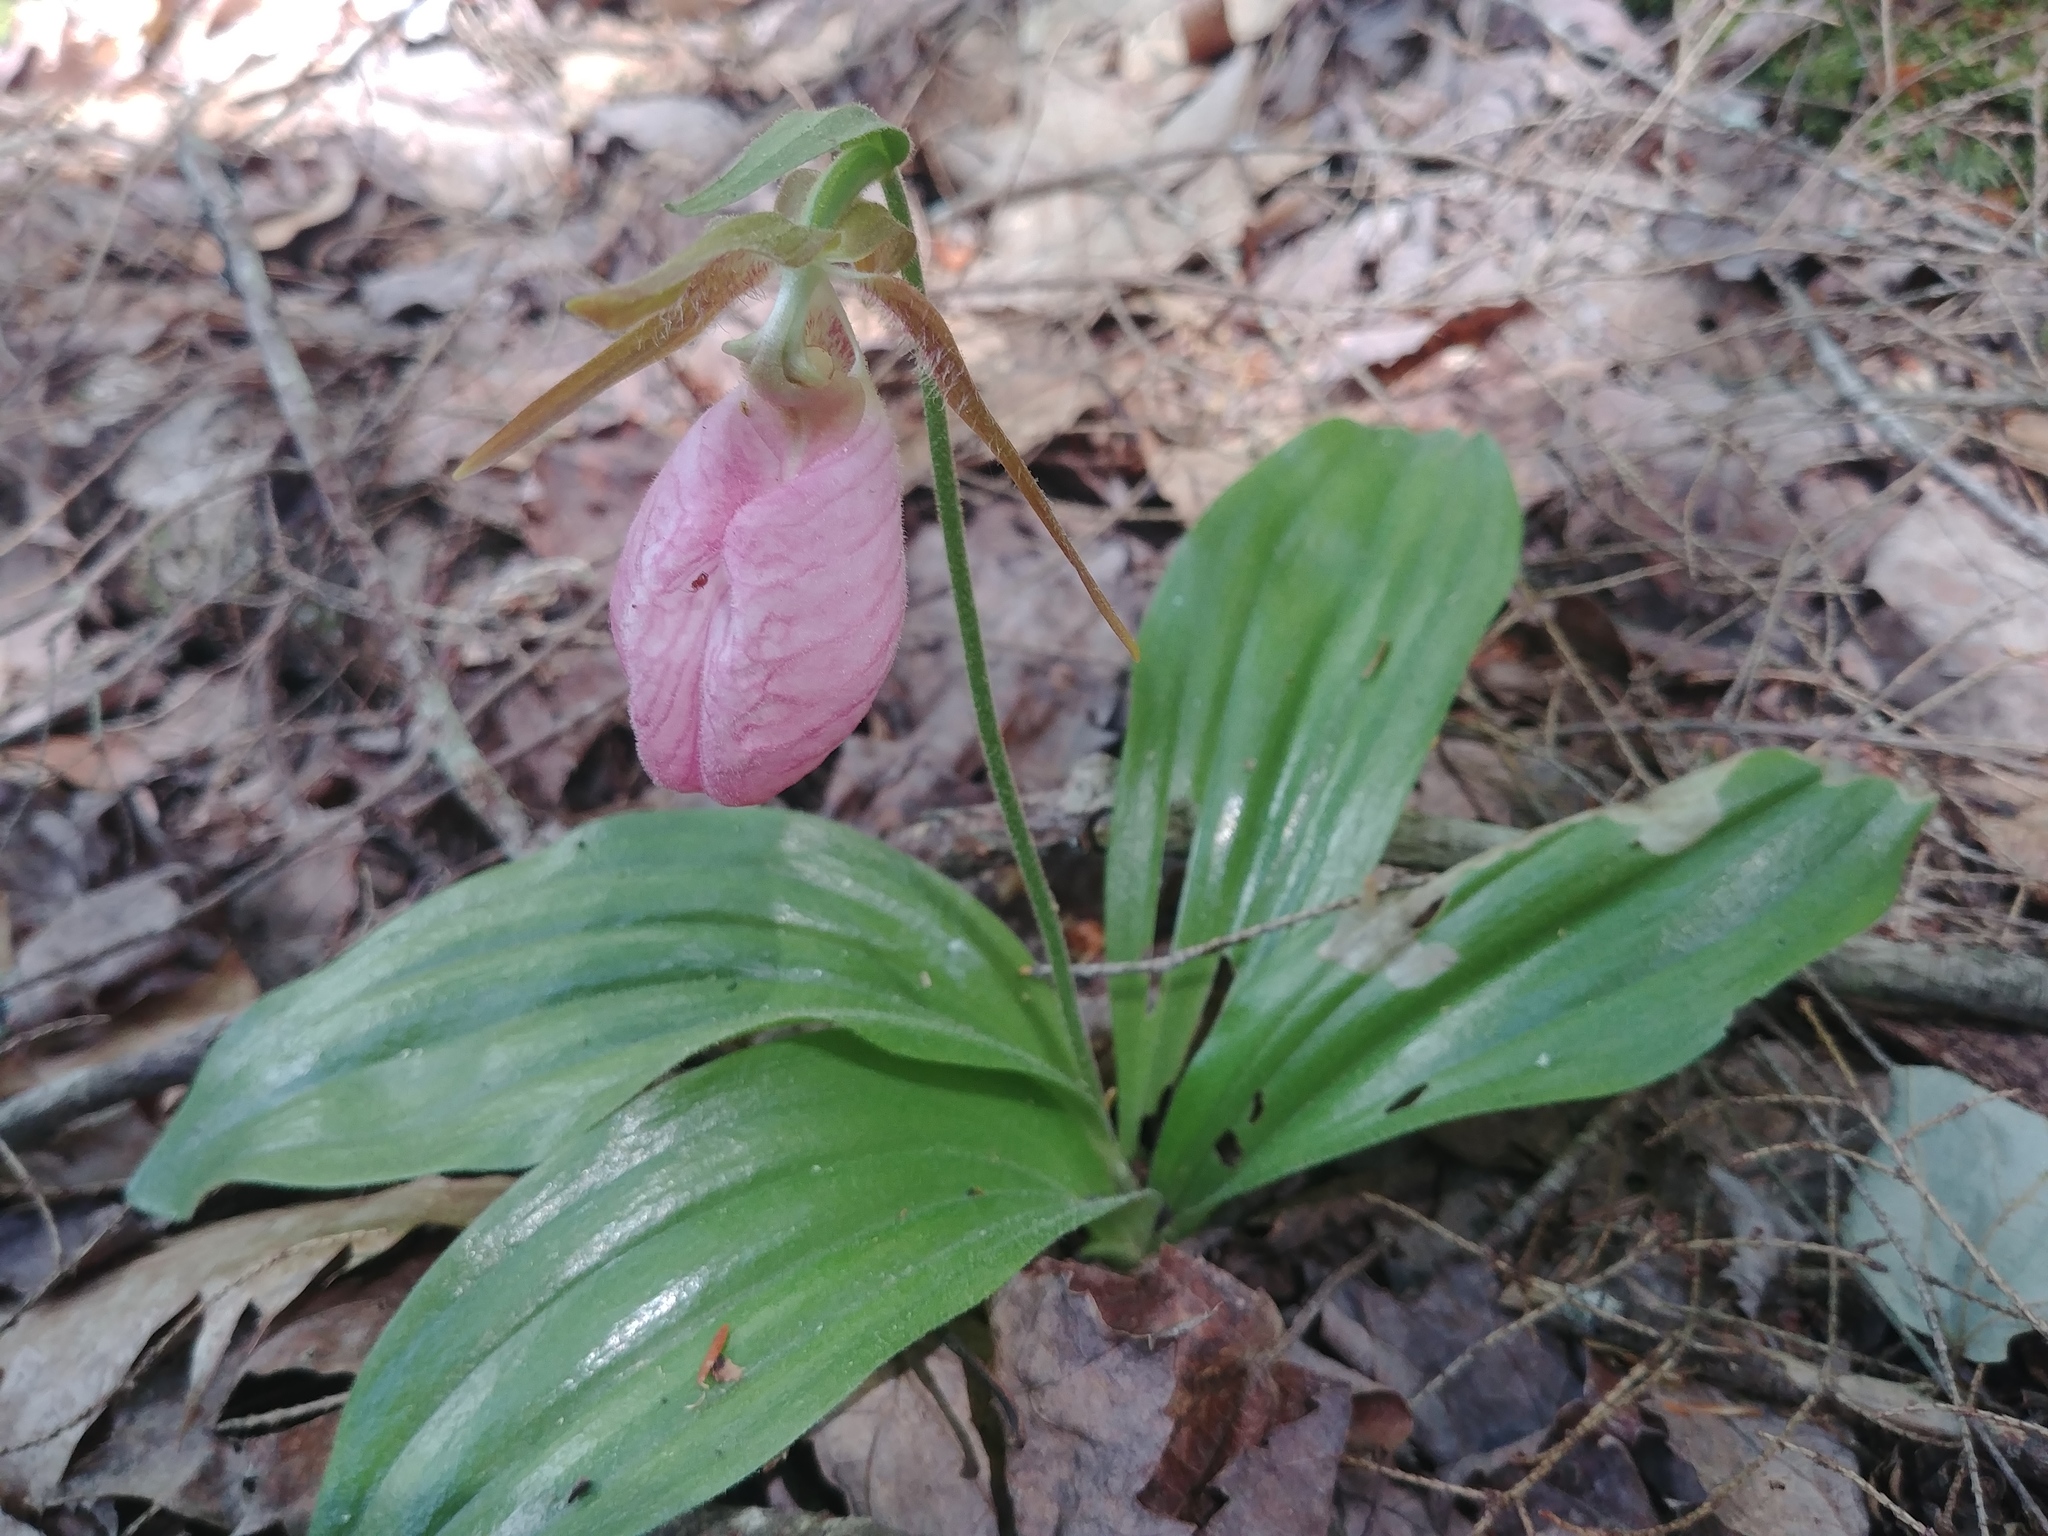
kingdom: Plantae
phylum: Tracheophyta
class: Liliopsida
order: Asparagales
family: Orchidaceae
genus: Cypripedium
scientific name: Cypripedium acaule
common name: Pink lady's-slipper
